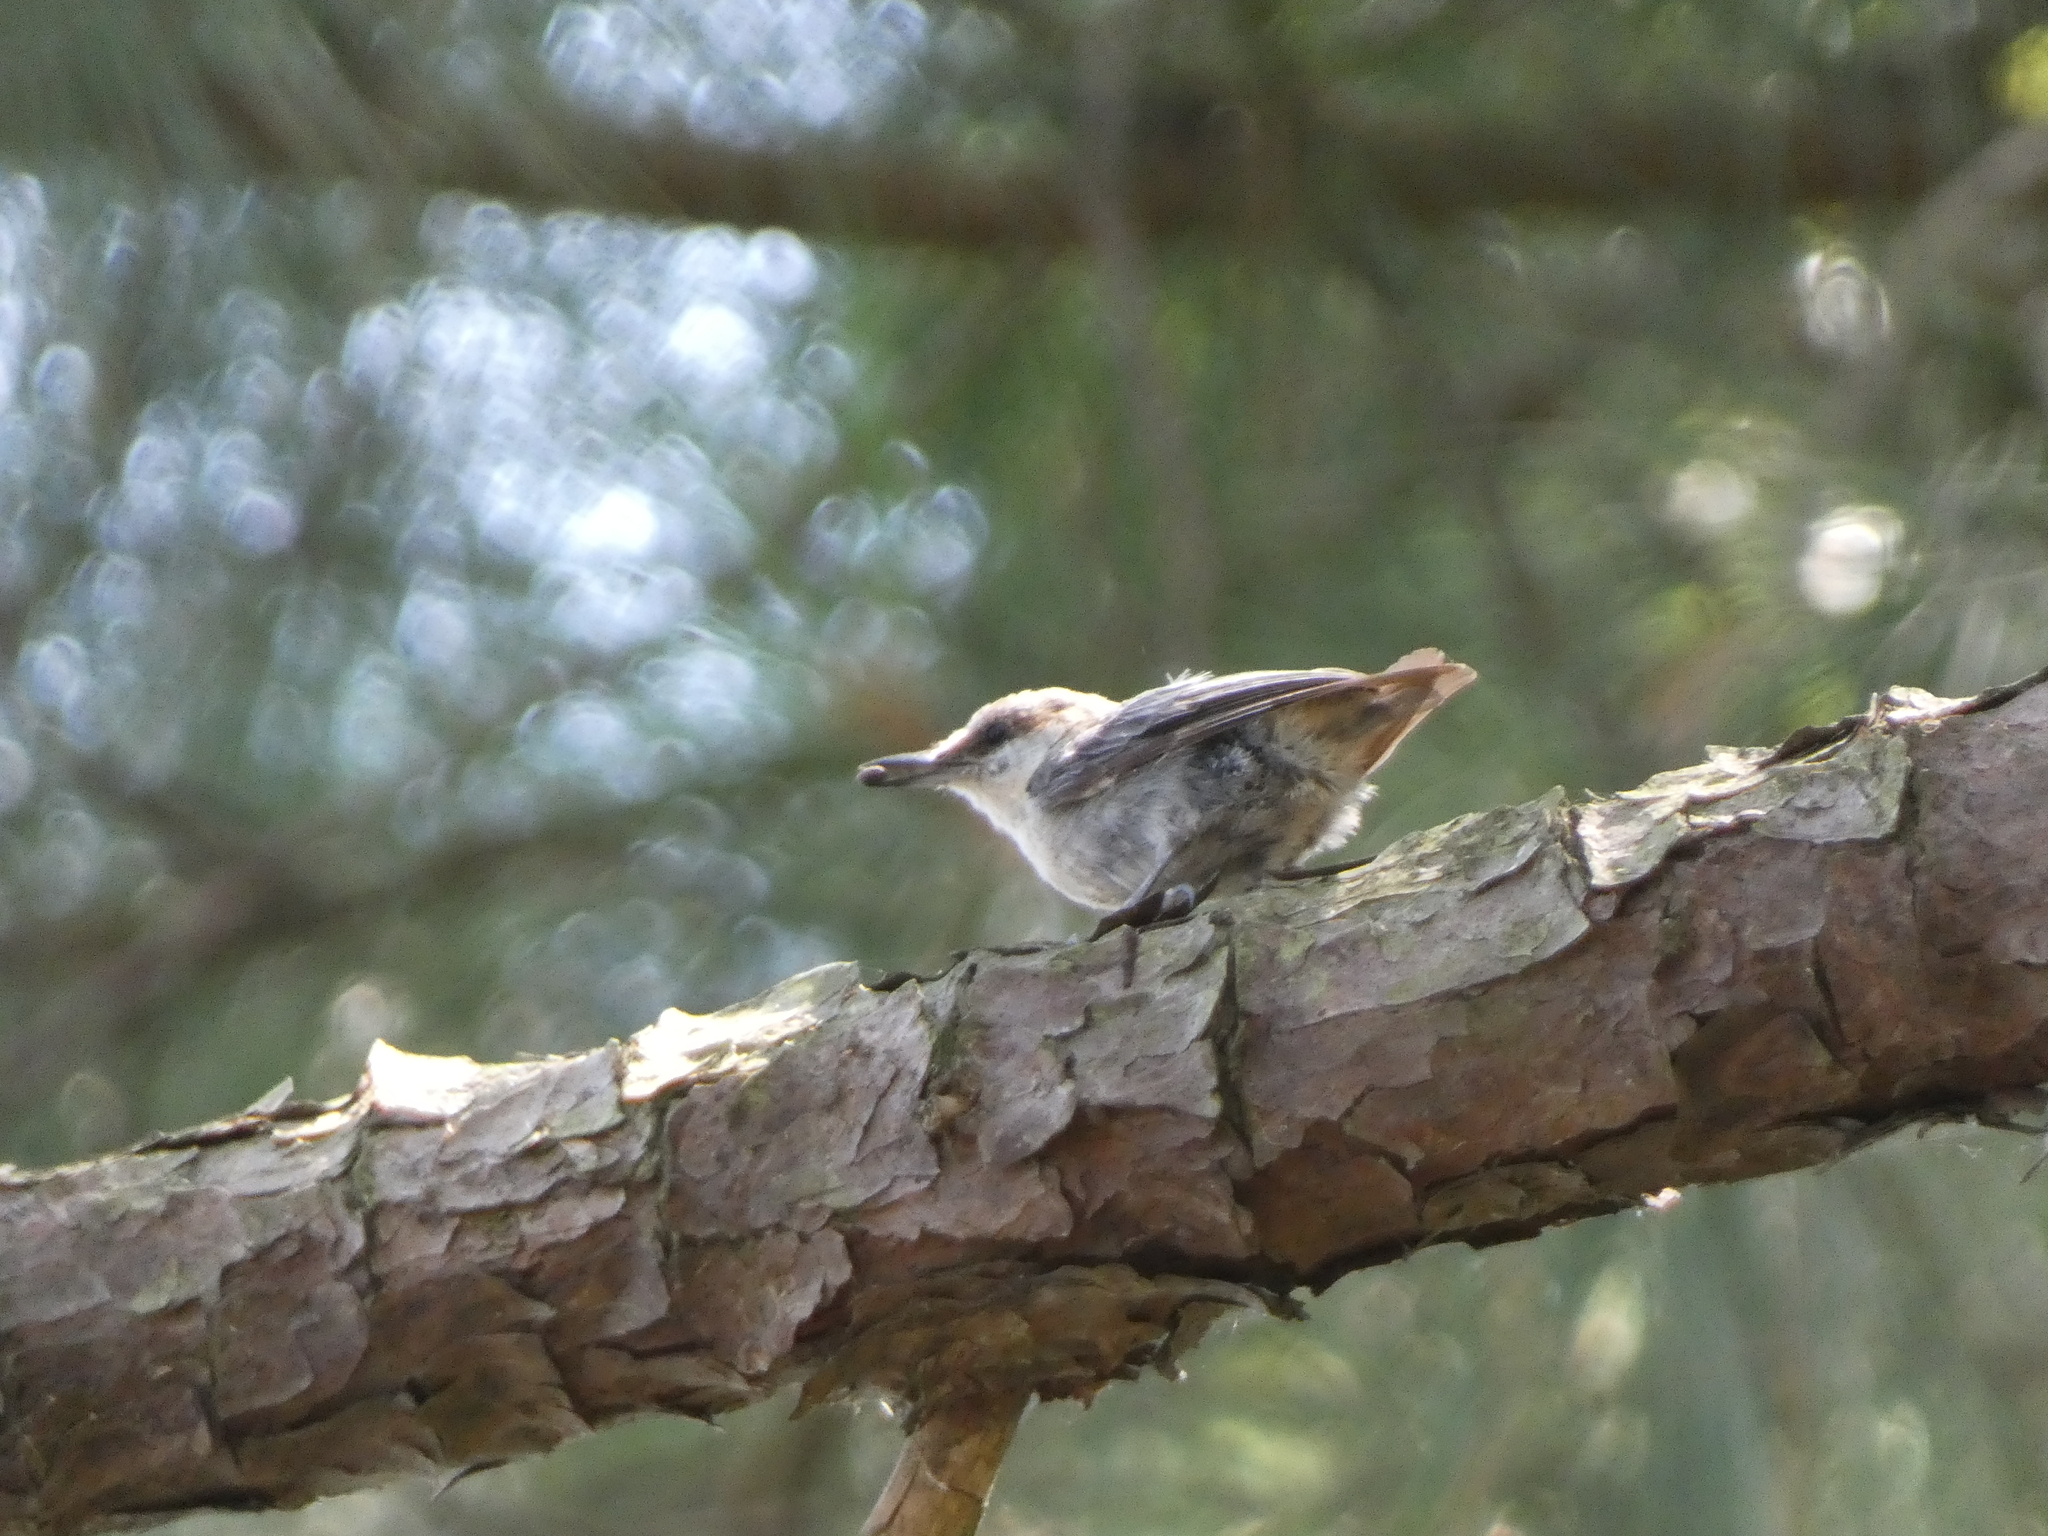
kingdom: Animalia
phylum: Chordata
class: Aves
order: Passeriformes
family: Sittidae
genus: Sitta
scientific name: Sitta pusilla
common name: Brown-headed nuthatch
